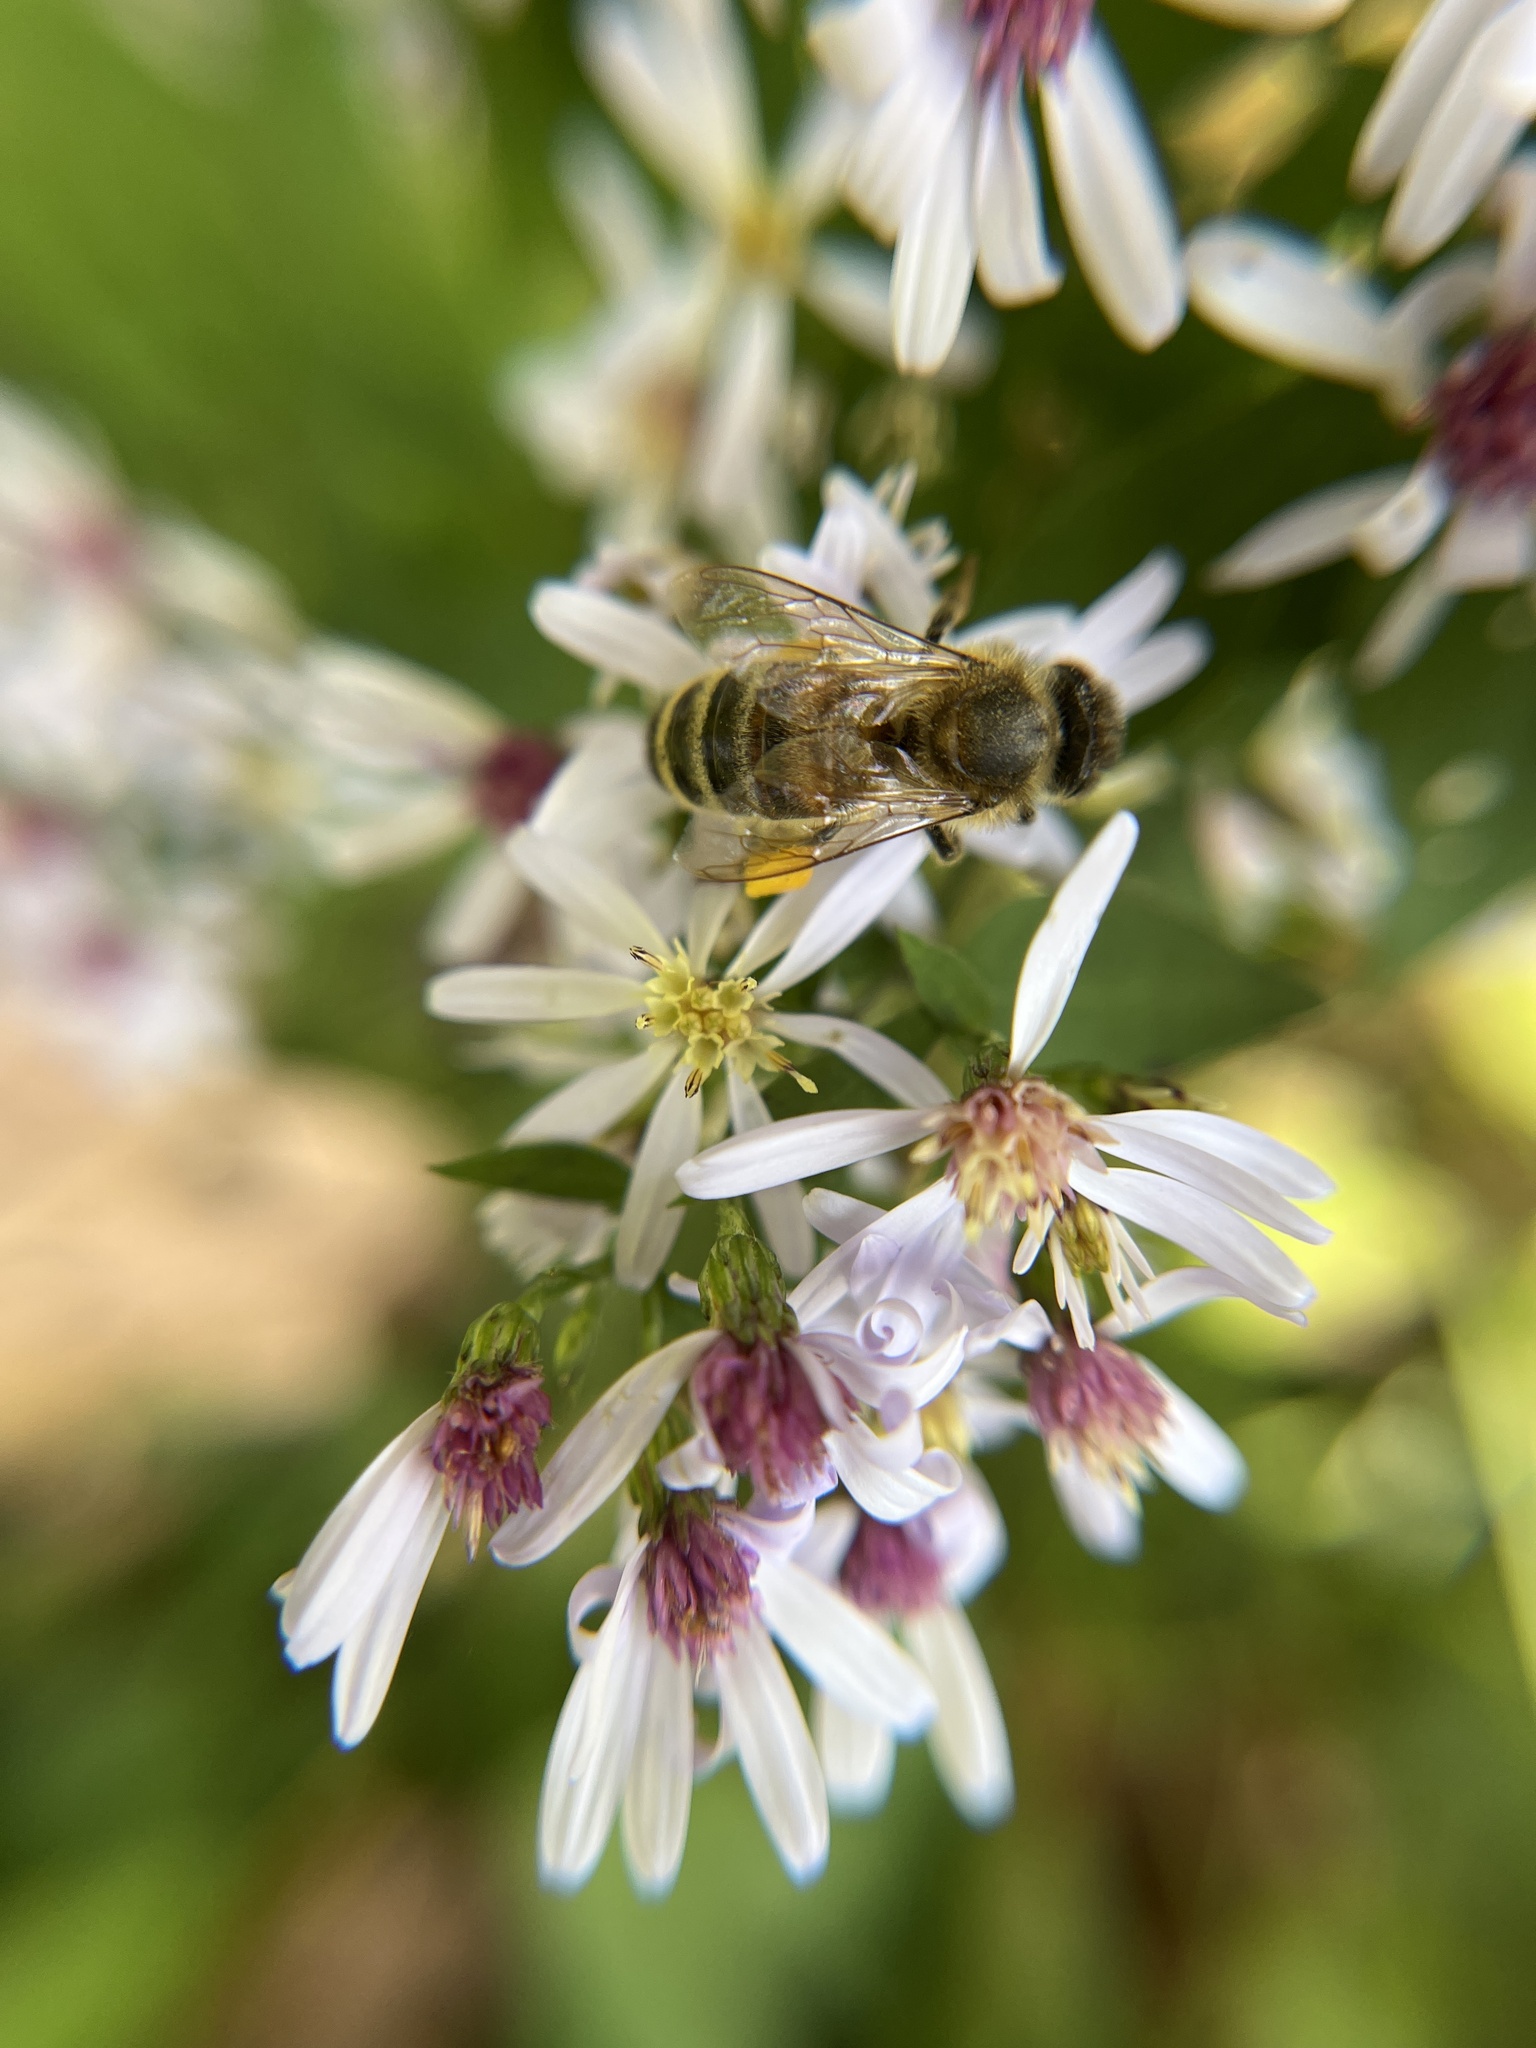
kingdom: Animalia
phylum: Arthropoda
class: Insecta
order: Hymenoptera
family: Apidae
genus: Apis
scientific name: Apis mellifera
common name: Honey bee
